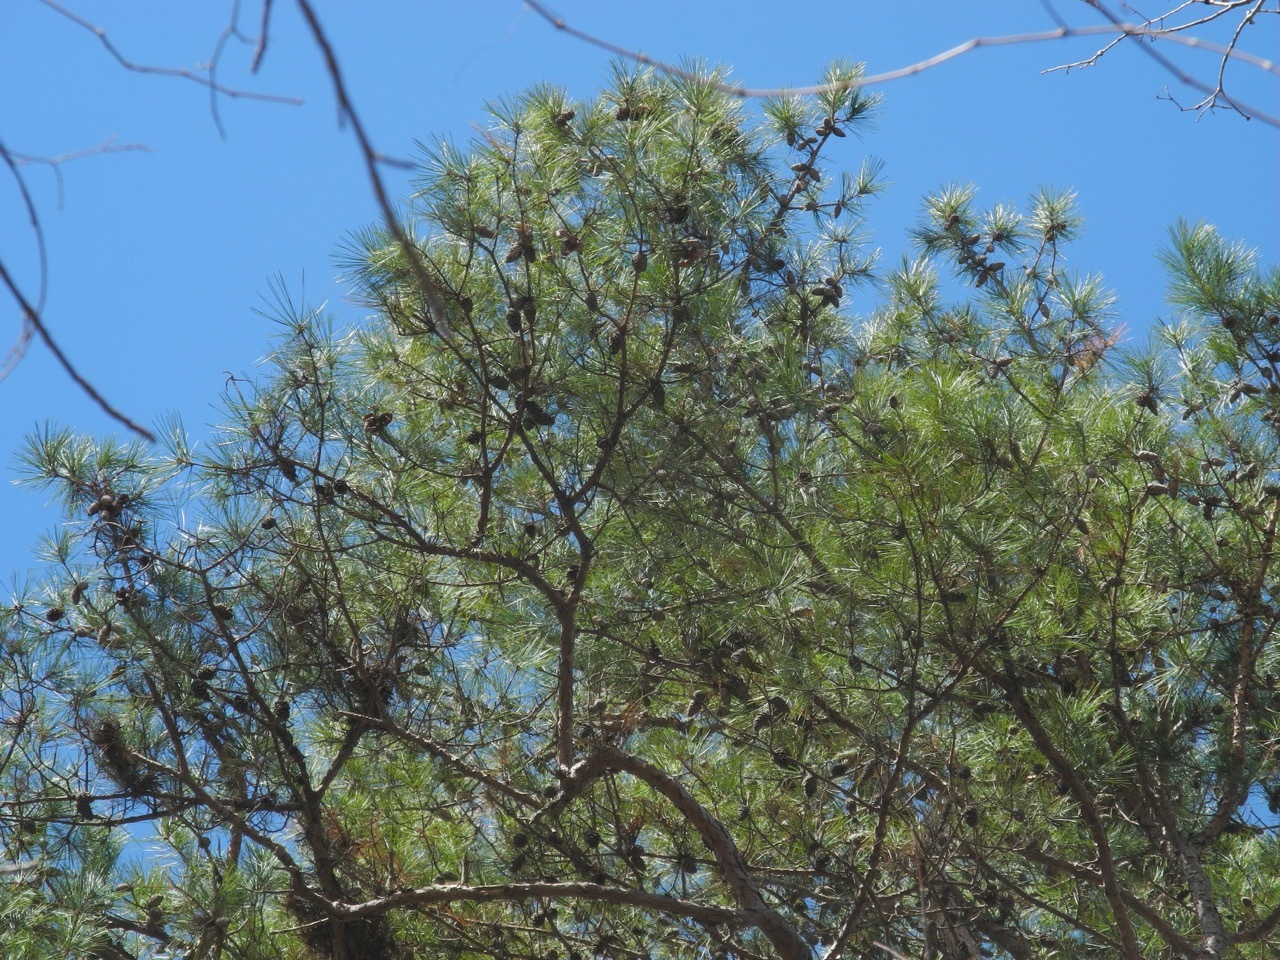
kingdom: Plantae
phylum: Tracheophyta
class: Pinopsida
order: Pinales
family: Pinaceae
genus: Pinus
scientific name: Pinus echinata
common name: Shortleaf pine
